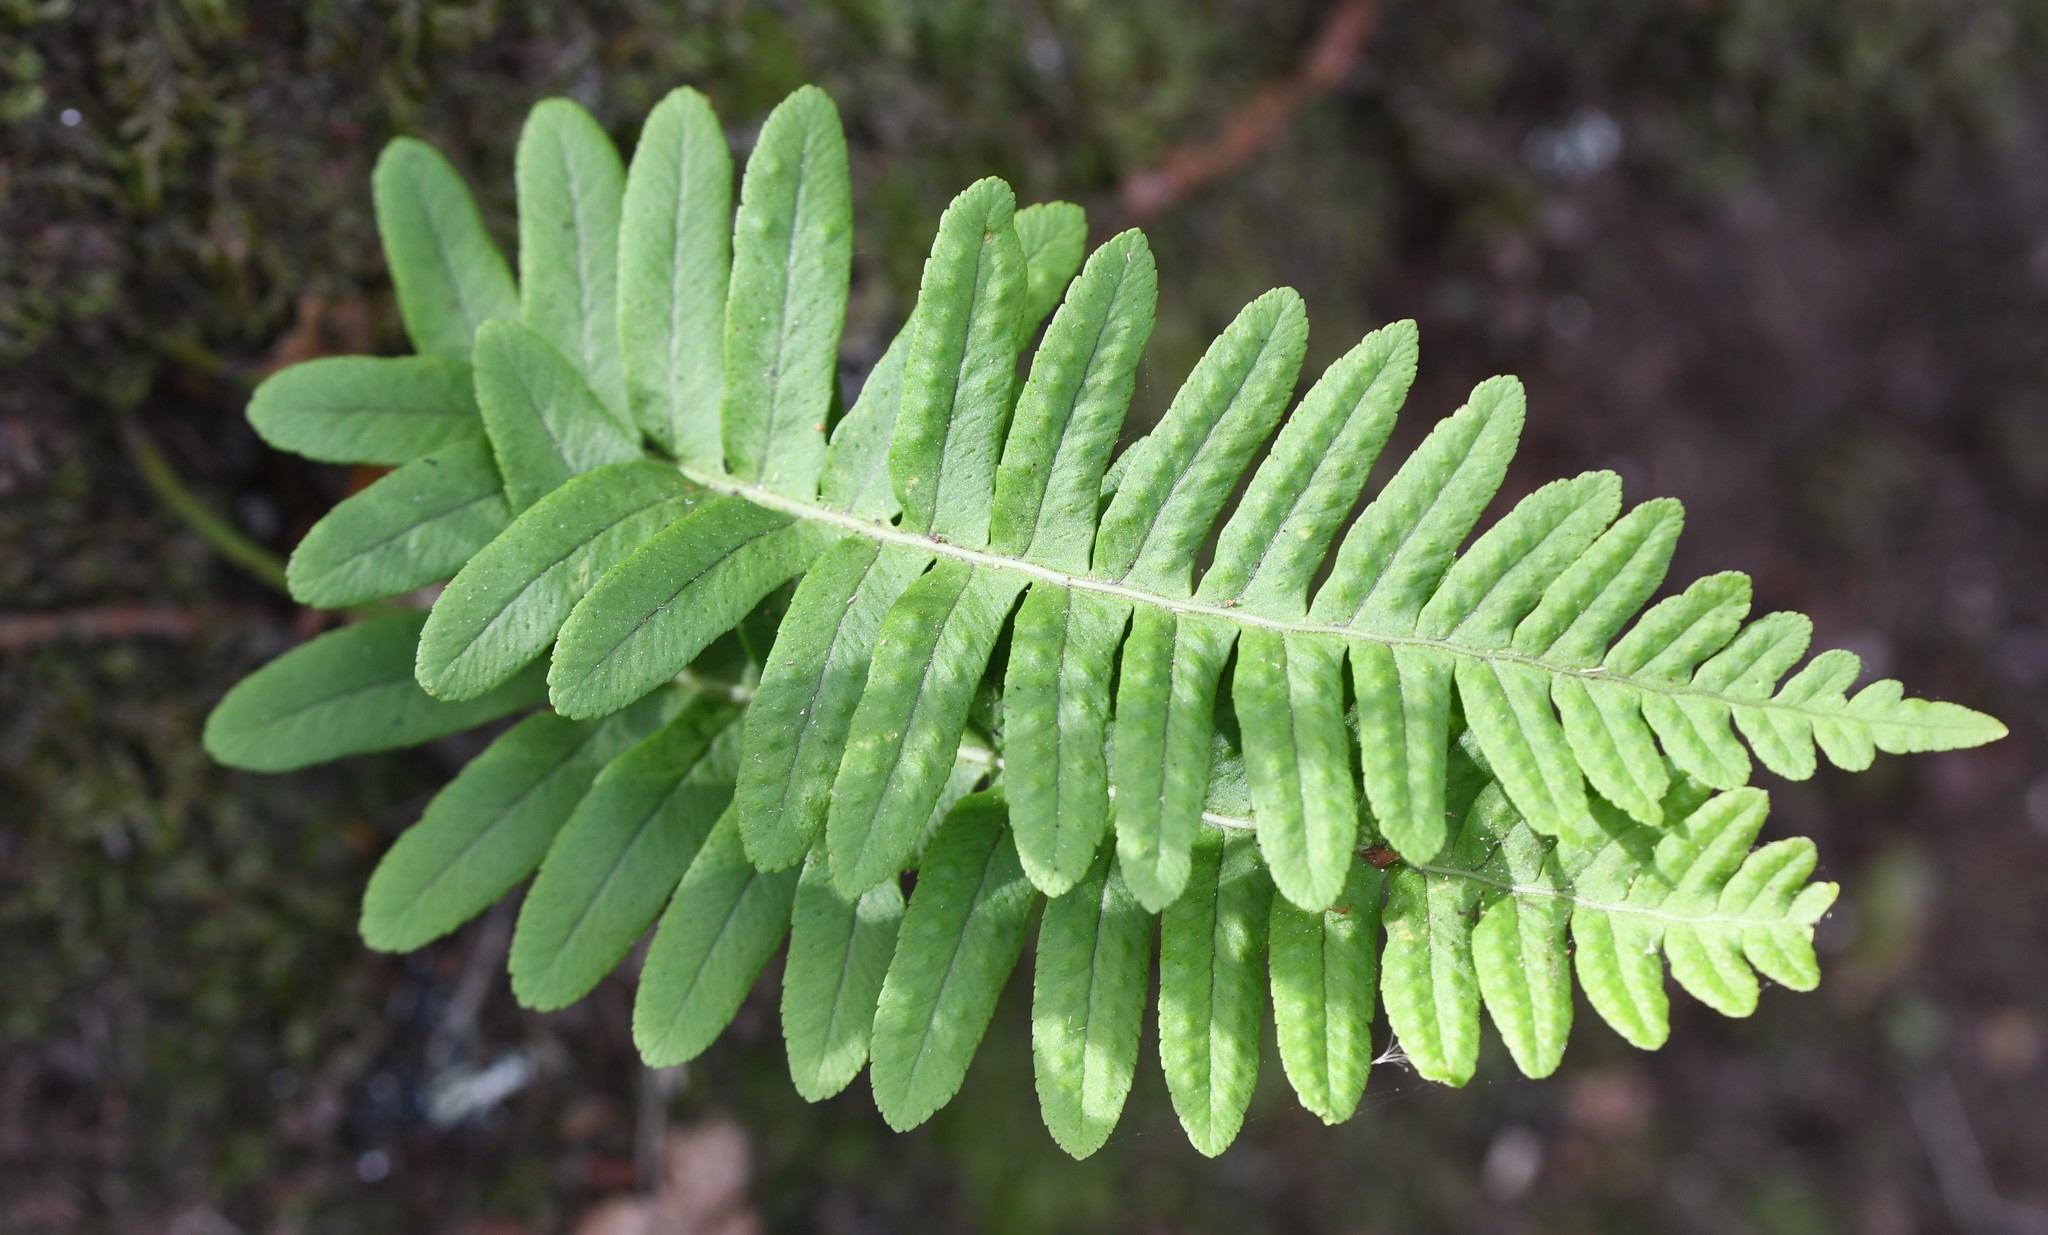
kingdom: Plantae
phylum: Tracheophyta
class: Polypodiopsida
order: Polypodiales
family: Polypodiaceae
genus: Polypodium
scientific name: Polypodium vulgare
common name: Common polypody
